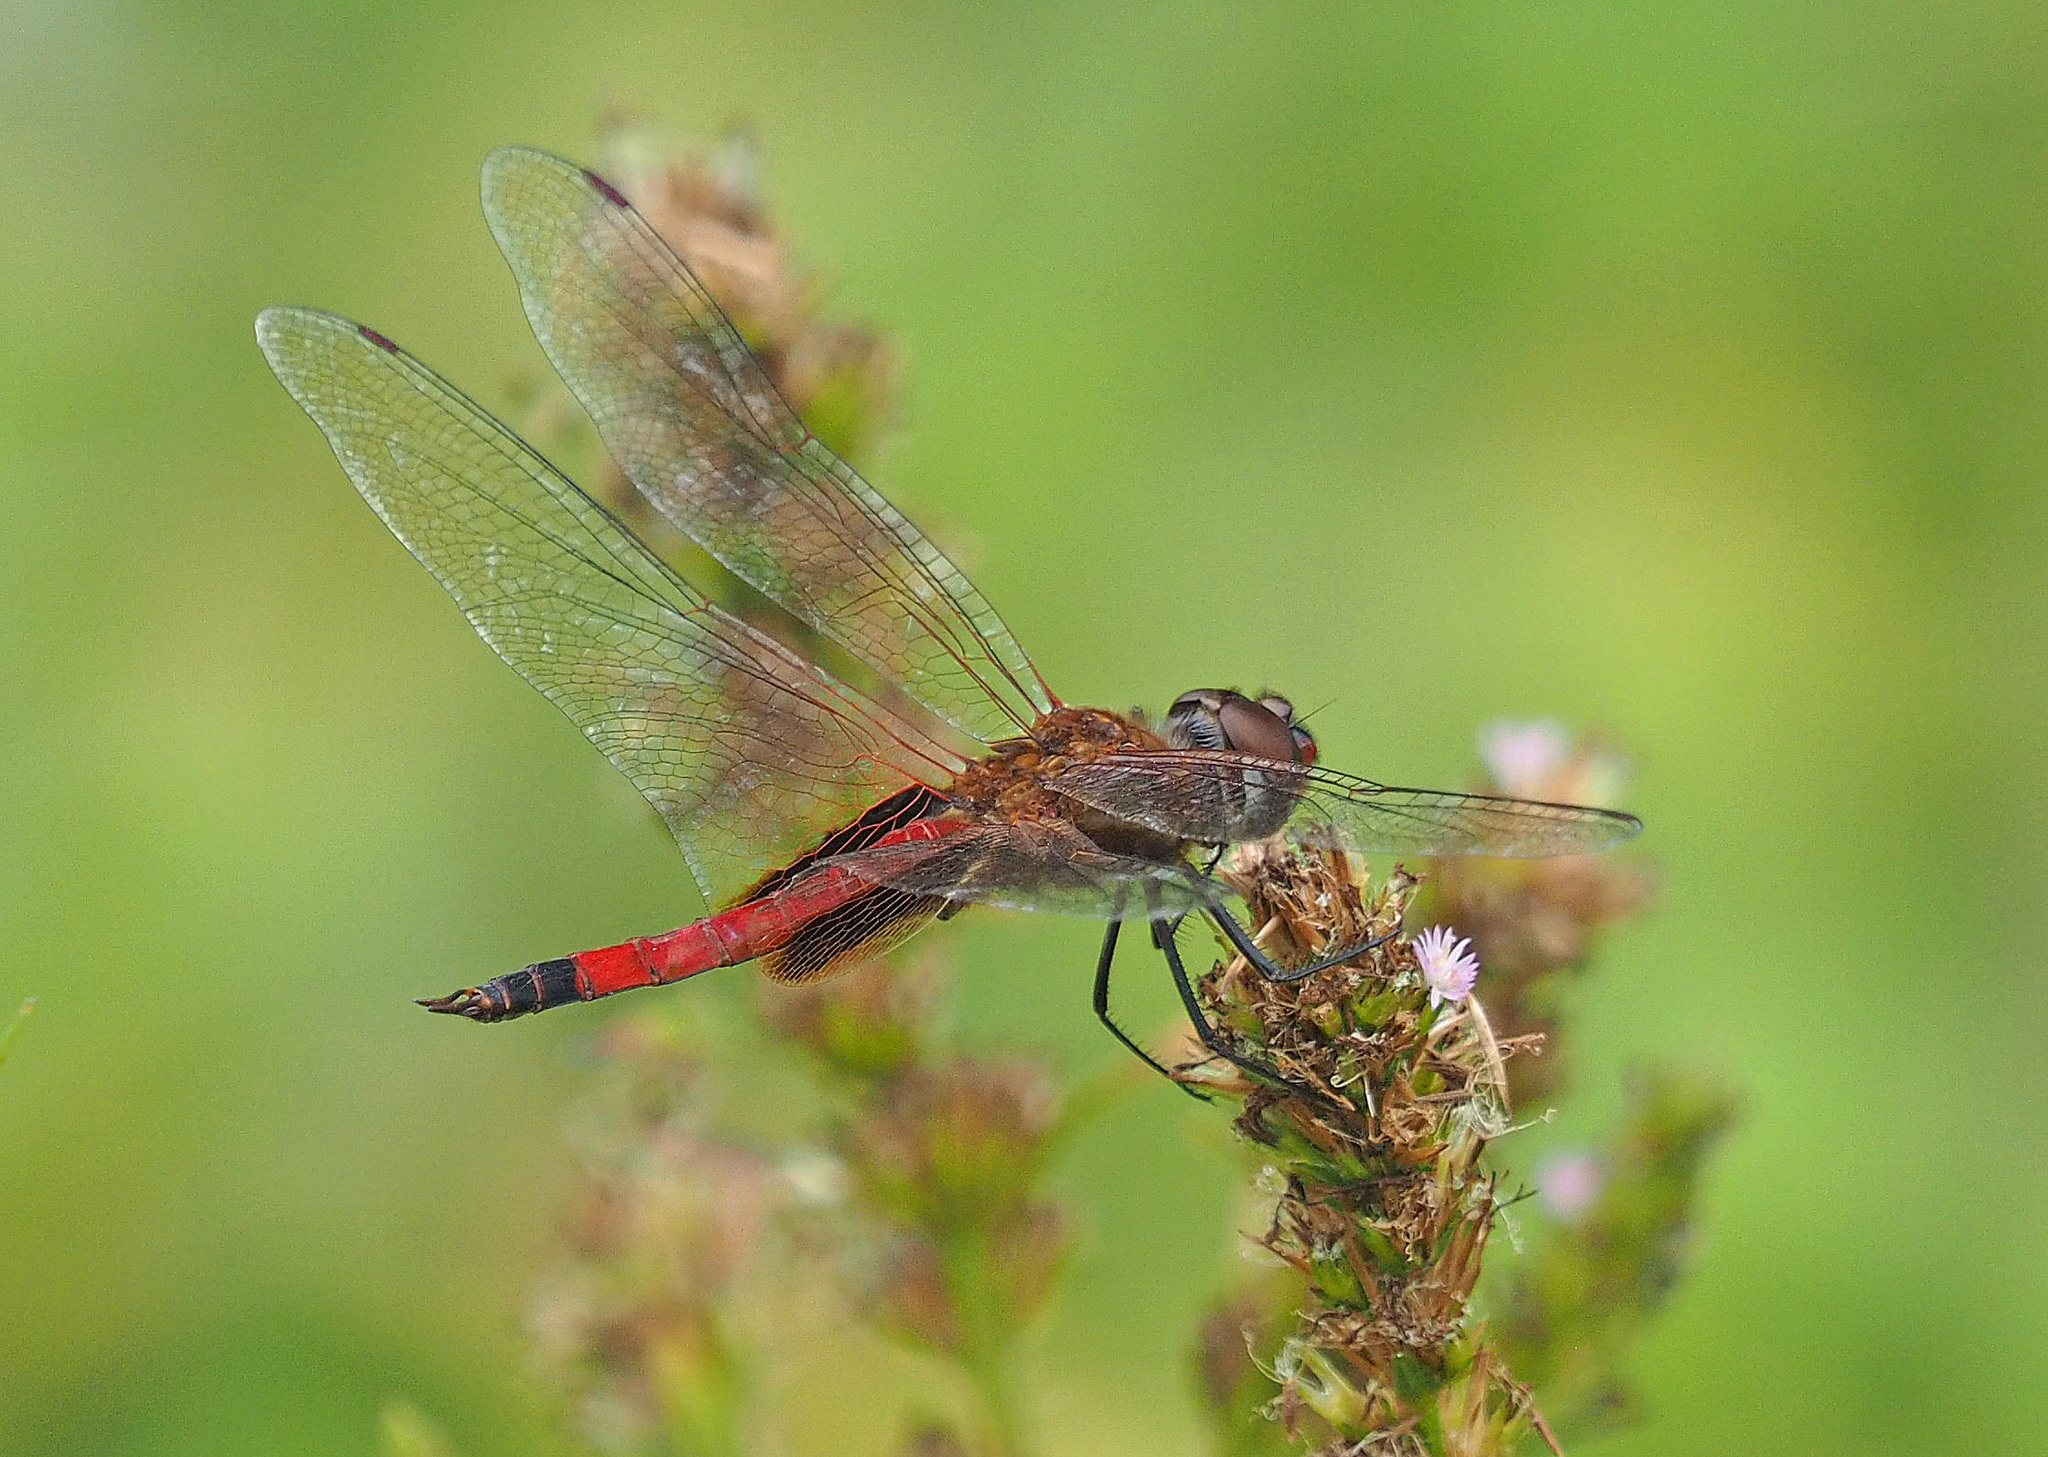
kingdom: Animalia
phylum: Arthropoda
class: Insecta
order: Odonata
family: Libellulidae
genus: Tramea
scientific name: Tramea darwini
